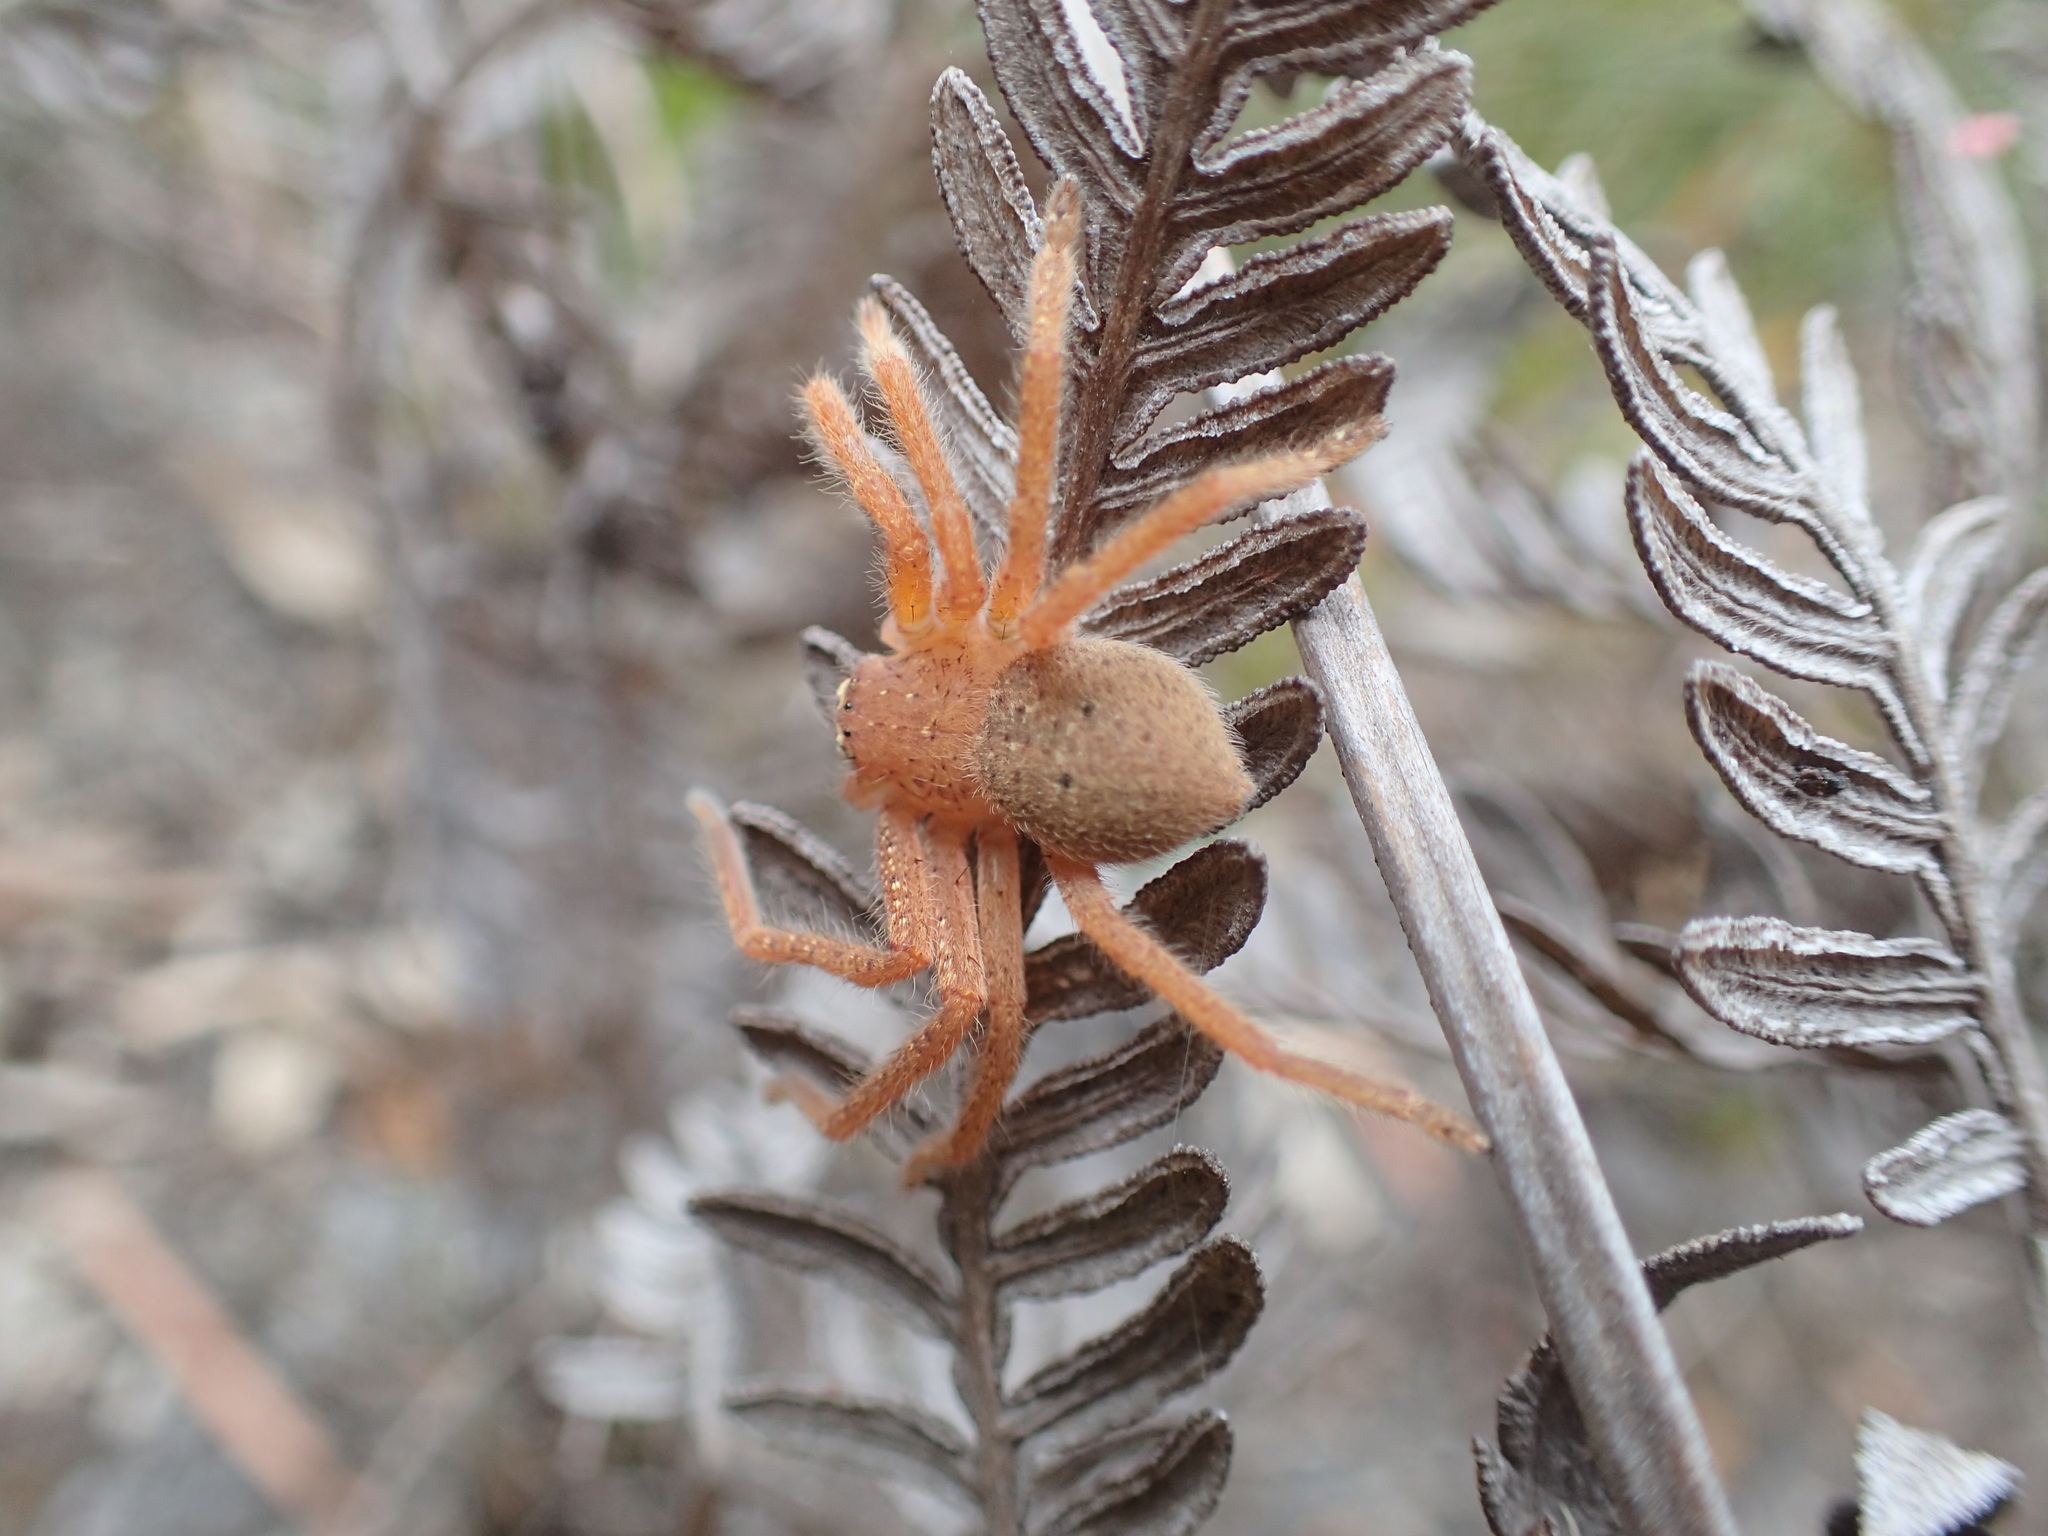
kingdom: Animalia
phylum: Arthropoda
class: Arachnida
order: Araneae
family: Sparassidae
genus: Neosparassus
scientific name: Neosparassus diana
